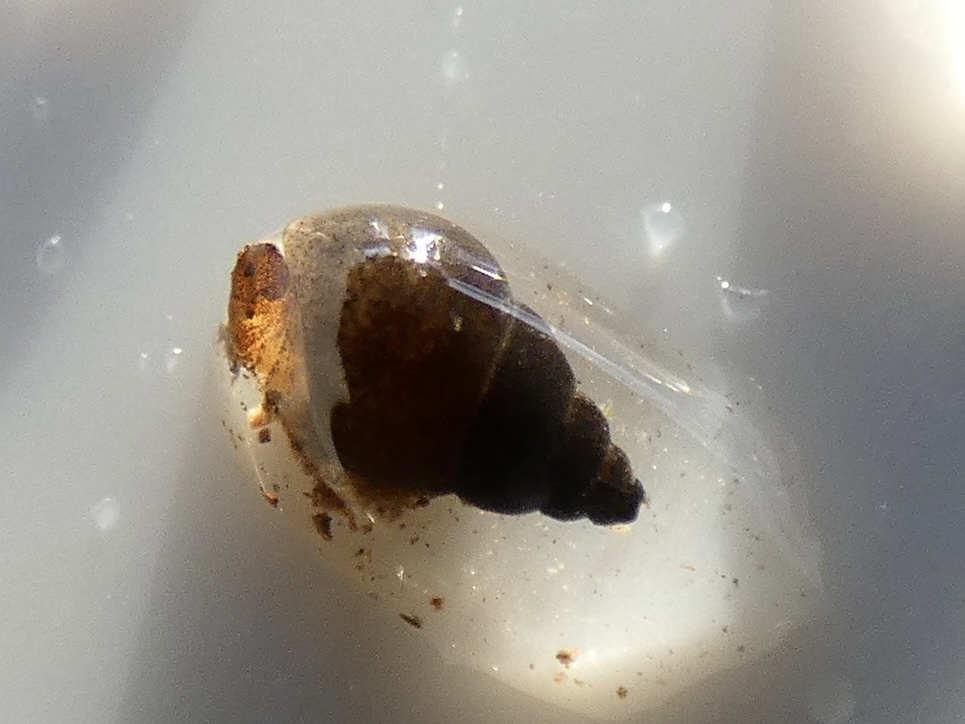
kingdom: Animalia
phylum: Mollusca
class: Gastropoda
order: Littorinimorpha
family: Tateidae
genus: Potamopyrgus
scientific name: Potamopyrgus antipodarum
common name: Jenkins' spire snail
